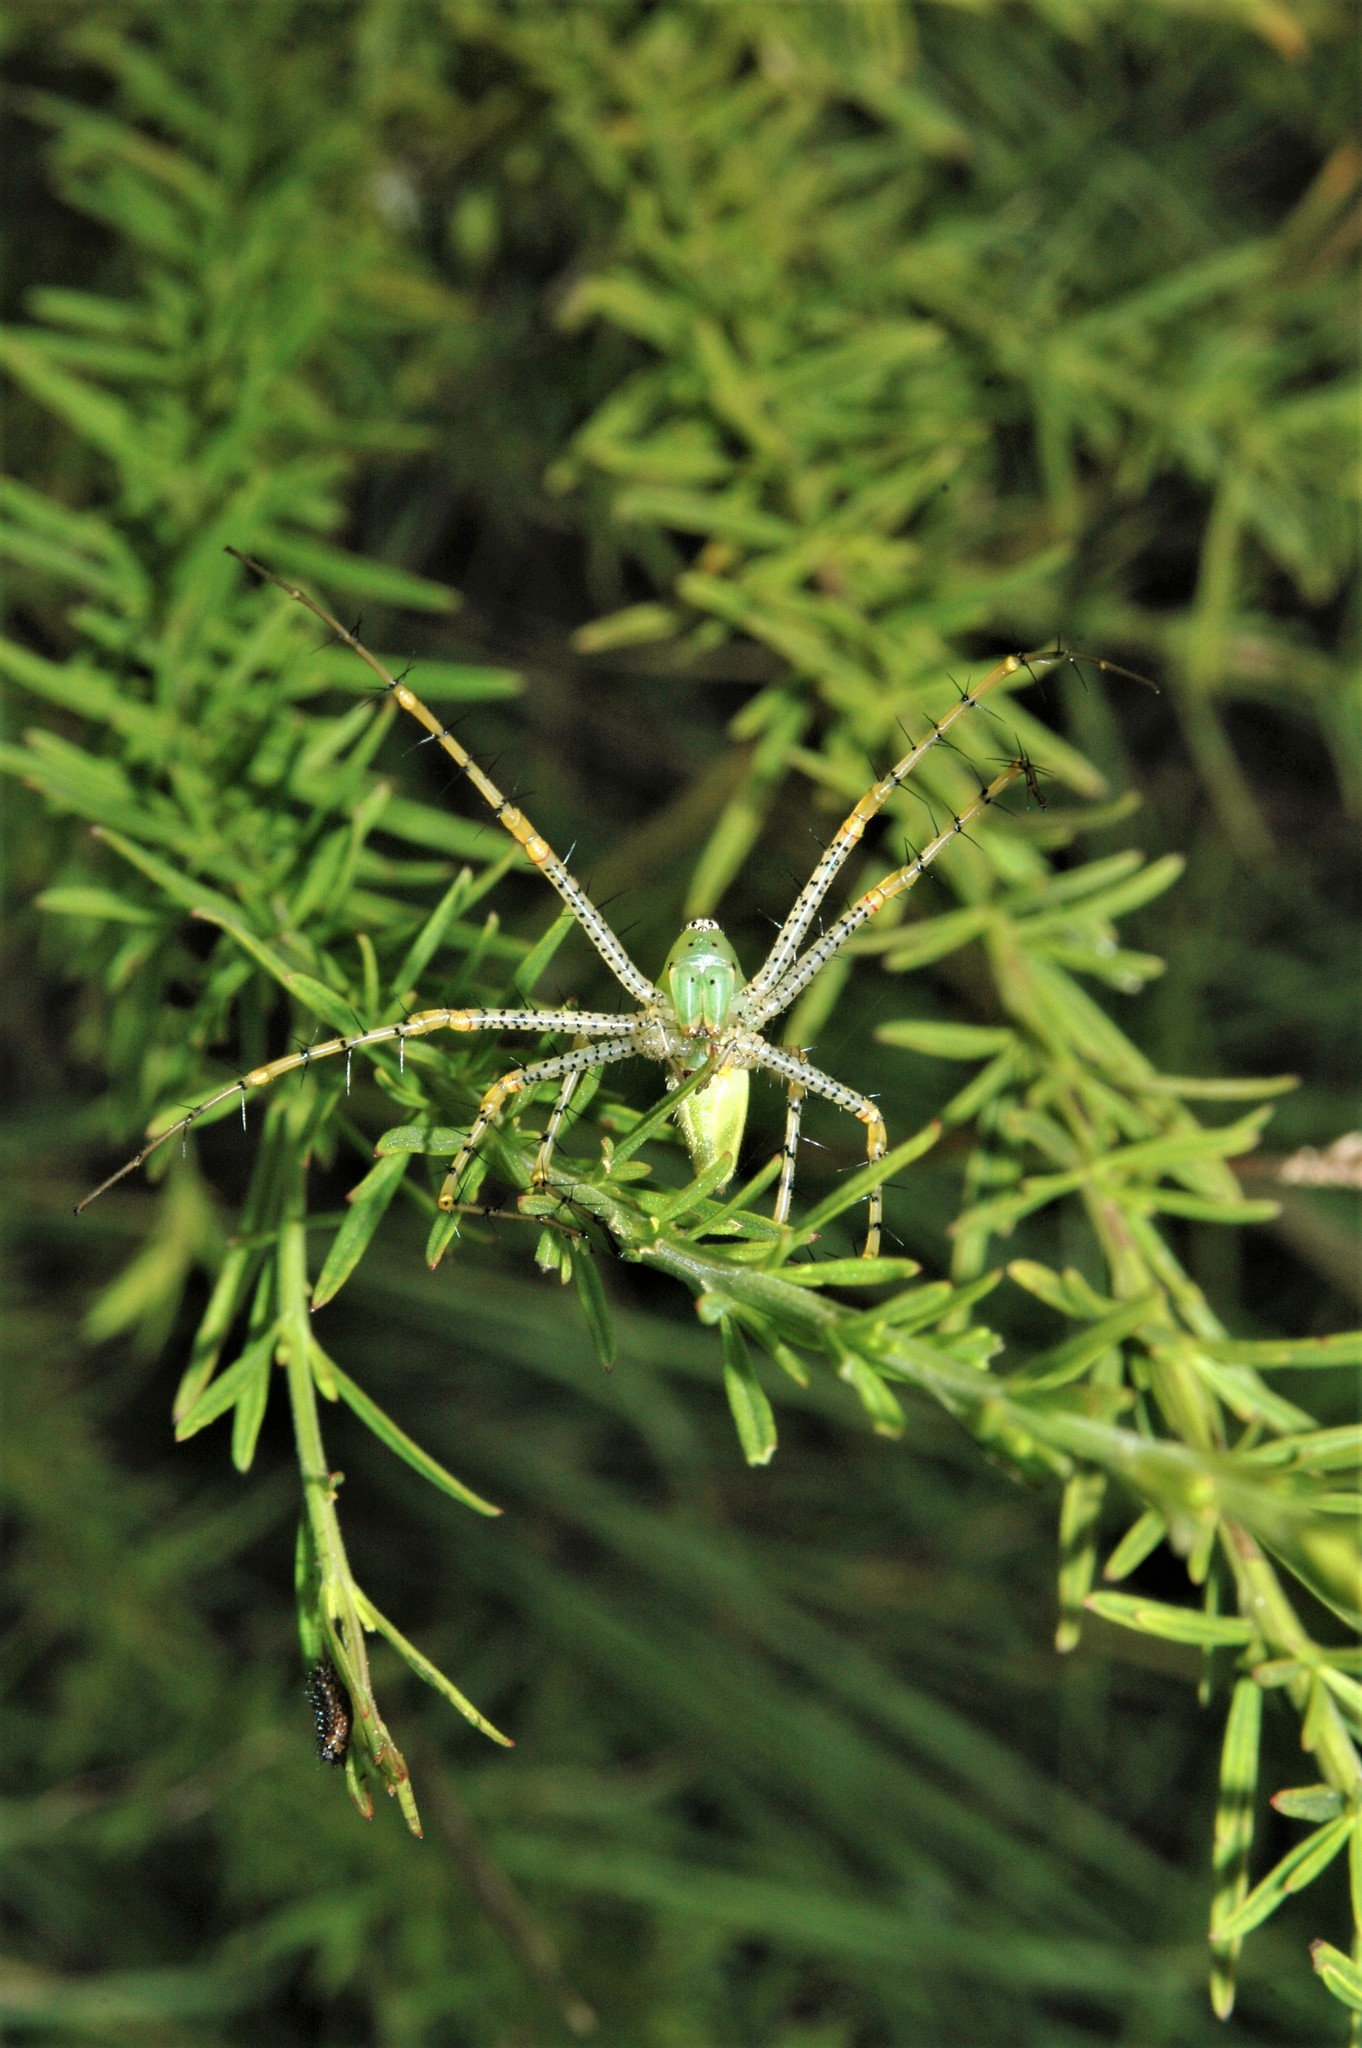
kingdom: Animalia
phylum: Arthropoda
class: Arachnida
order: Araneae
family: Oxyopidae
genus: Peucetia
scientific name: Peucetia viridans
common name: Lynx spiders
